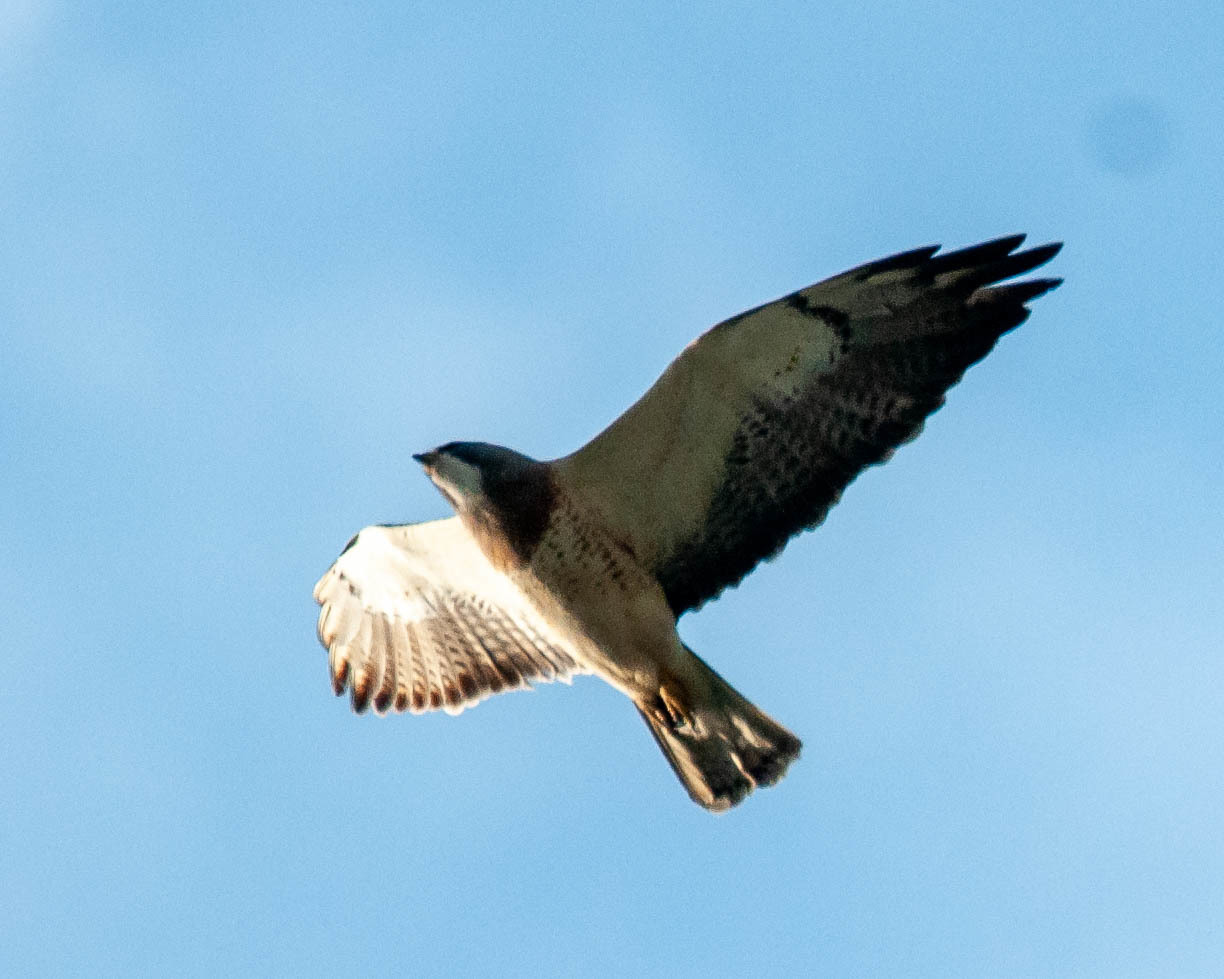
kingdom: Animalia
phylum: Chordata
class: Aves
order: Accipitriformes
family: Accipitridae
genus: Buteo
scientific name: Buteo swainsoni
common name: Swainson's hawk
